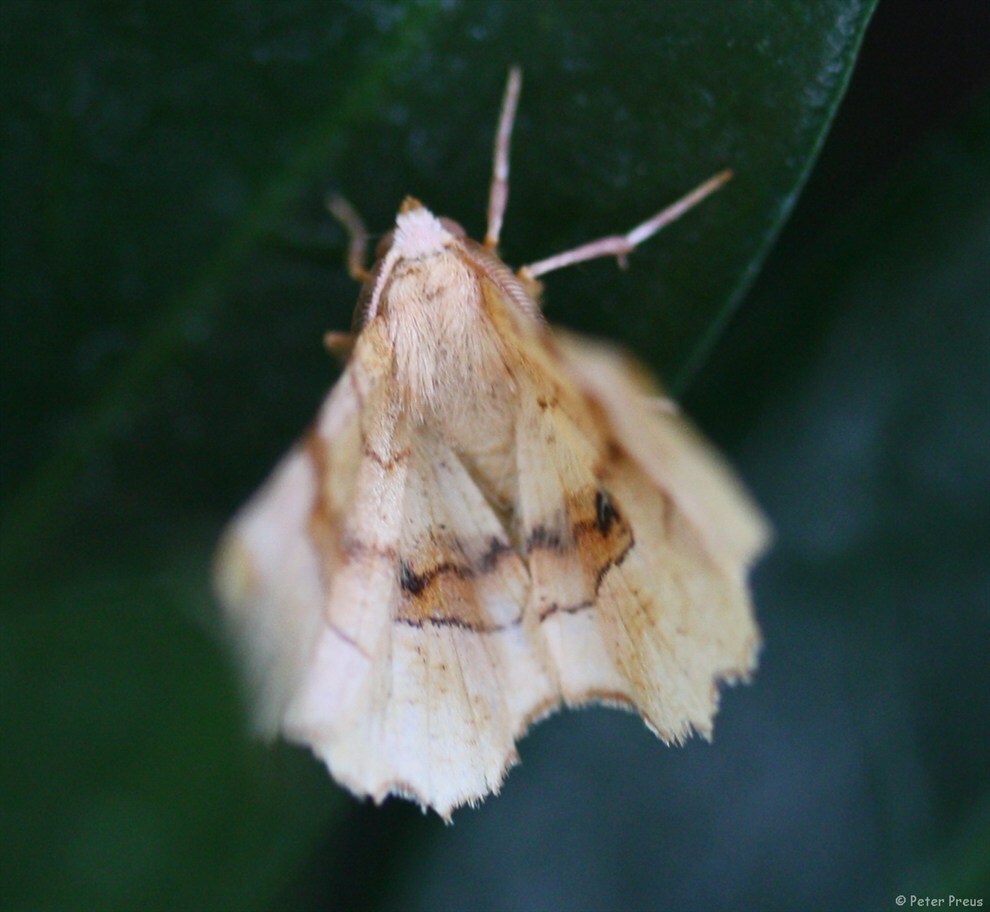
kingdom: Animalia
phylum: Arthropoda
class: Insecta
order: Lepidoptera
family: Geometridae
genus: Selenia
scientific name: Selenia lunularia
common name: Lunar thorn
